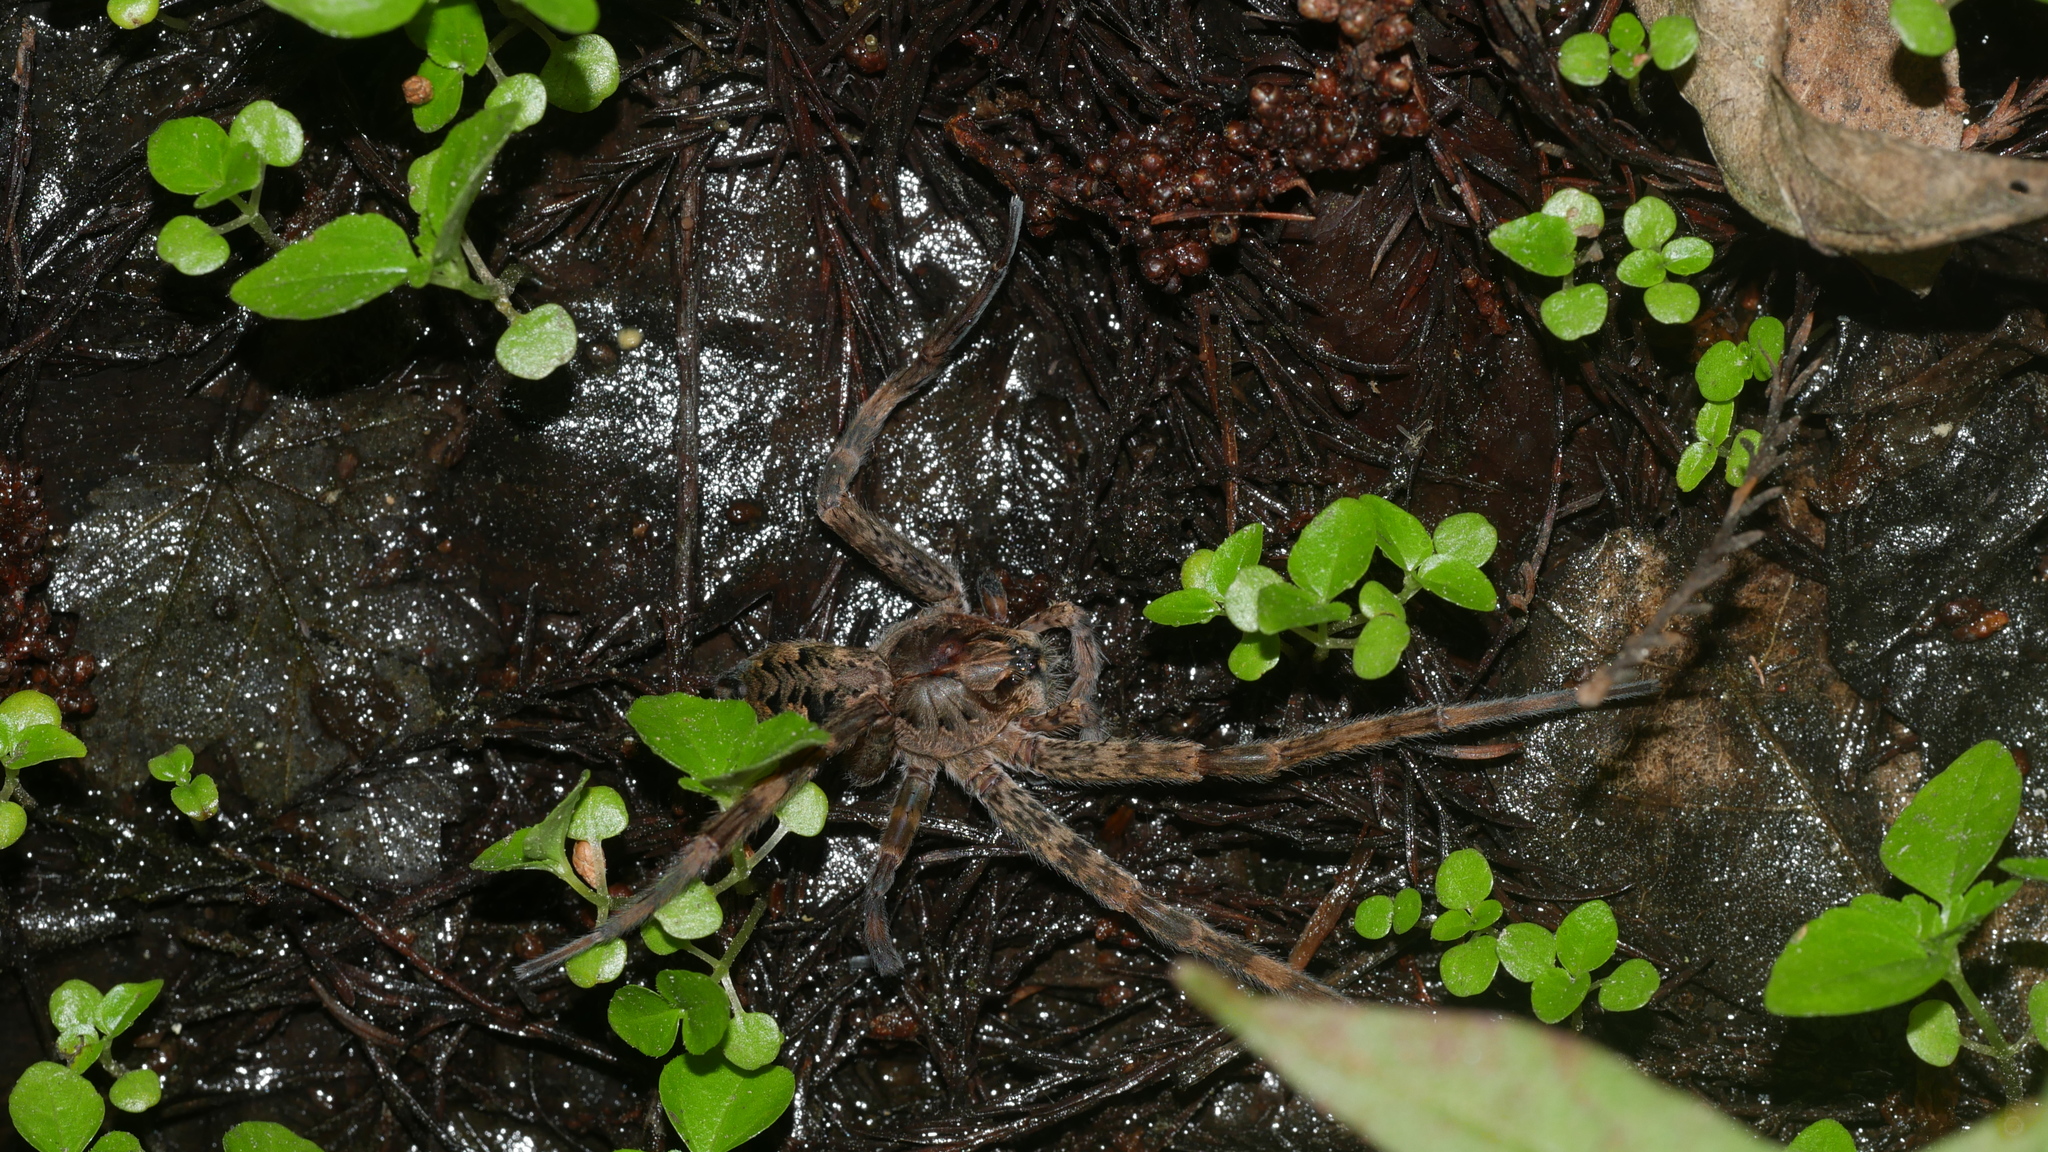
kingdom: Animalia
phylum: Arthropoda
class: Arachnida
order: Araneae
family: Pisauridae
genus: Dolomedes
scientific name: Dolomedes tenebrosus
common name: Dark fishing spider
